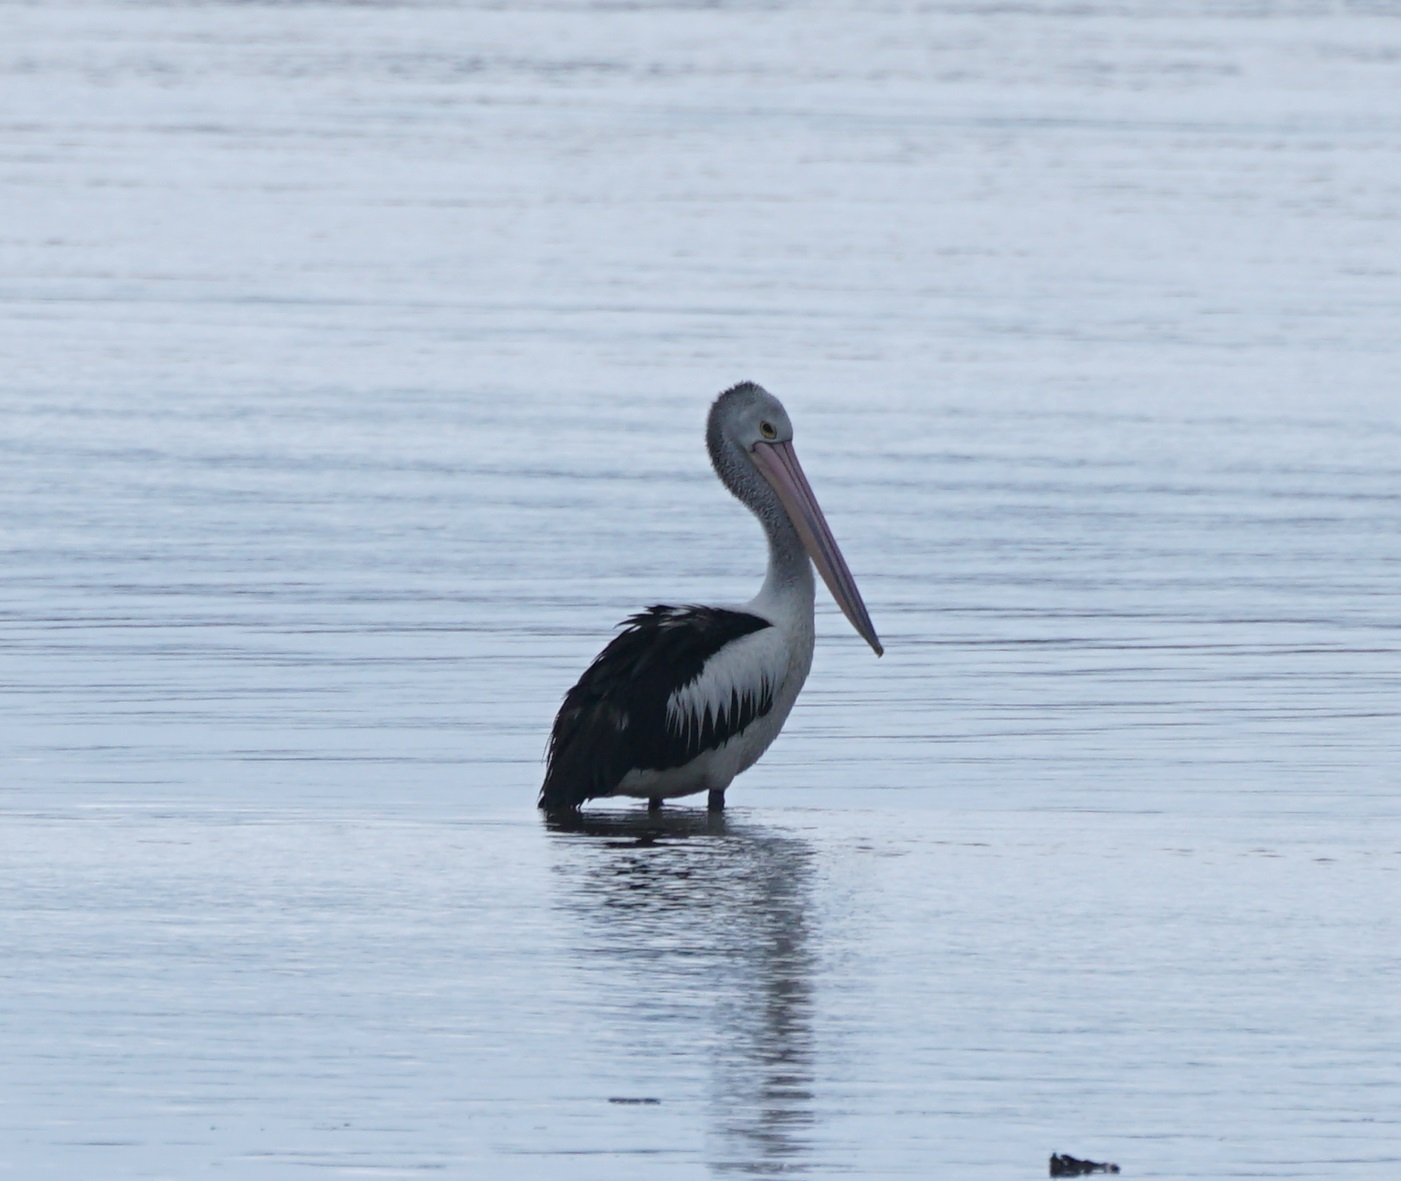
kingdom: Animalia
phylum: Chordata
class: Aves
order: Pelecaniformes
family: Pelecanidae
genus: Pelecanus
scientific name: Pelecanus conspicillatus
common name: Australian pelican
